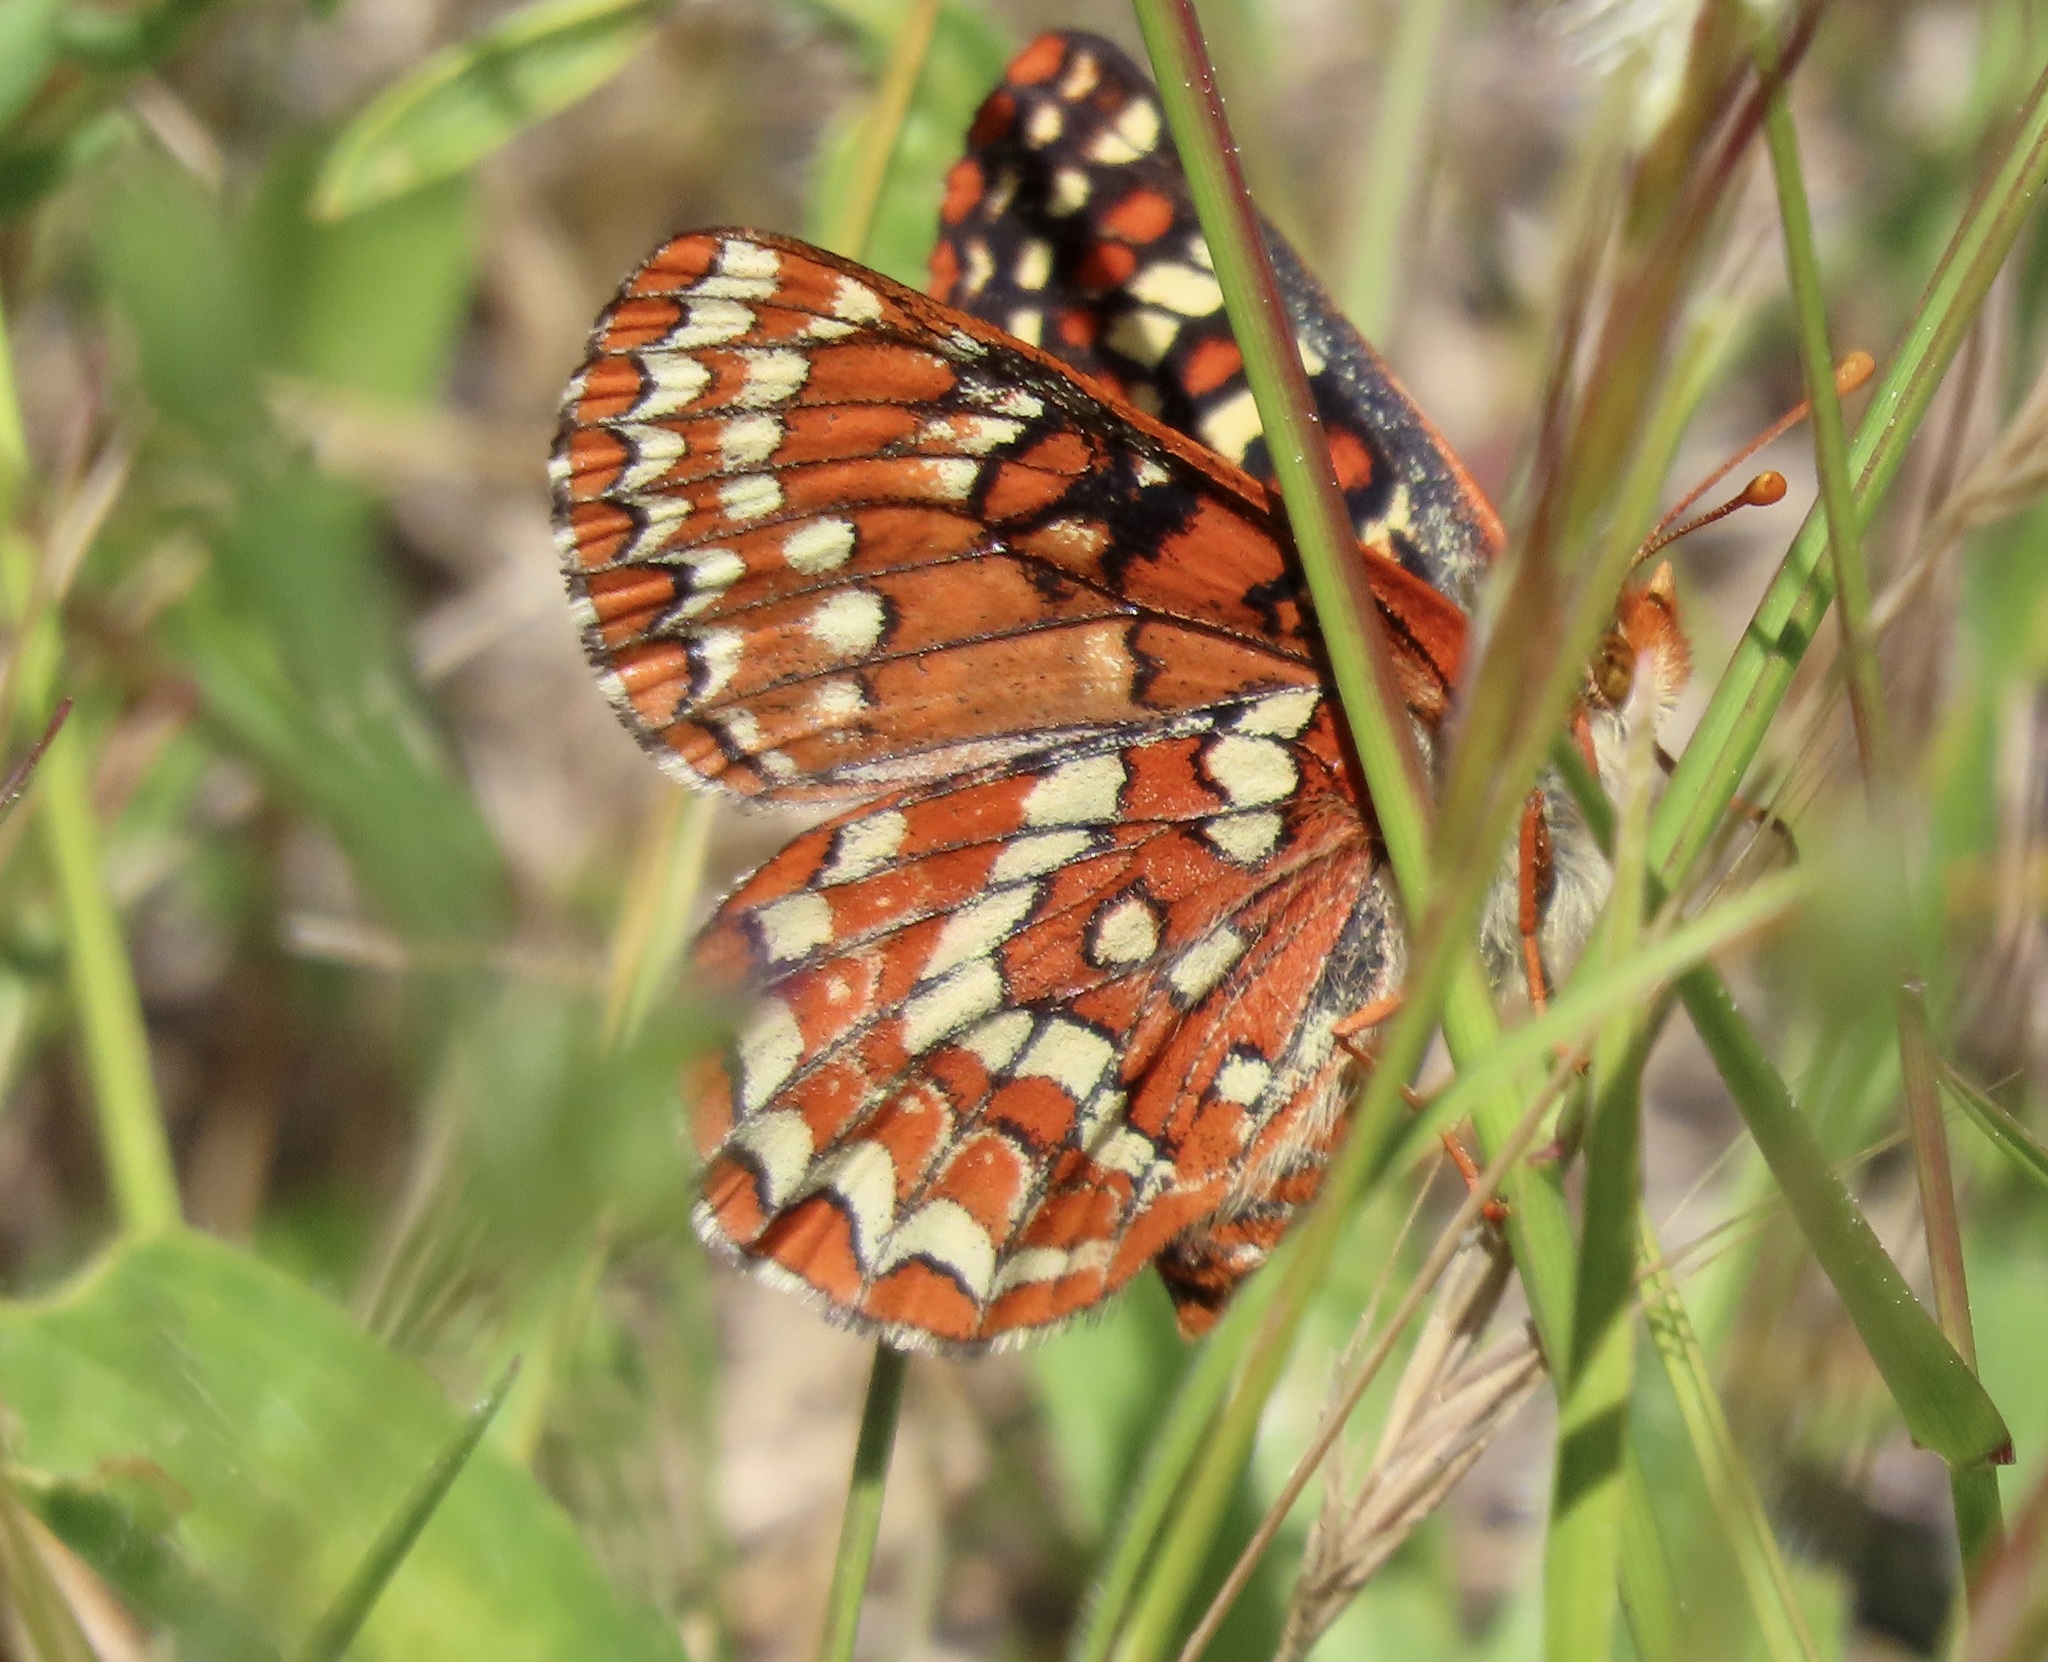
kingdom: Animalia
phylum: Arthropoda
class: Insecta
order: Lepidoptera
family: Nymphalidae
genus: Occidryas
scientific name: Occidryas editha
